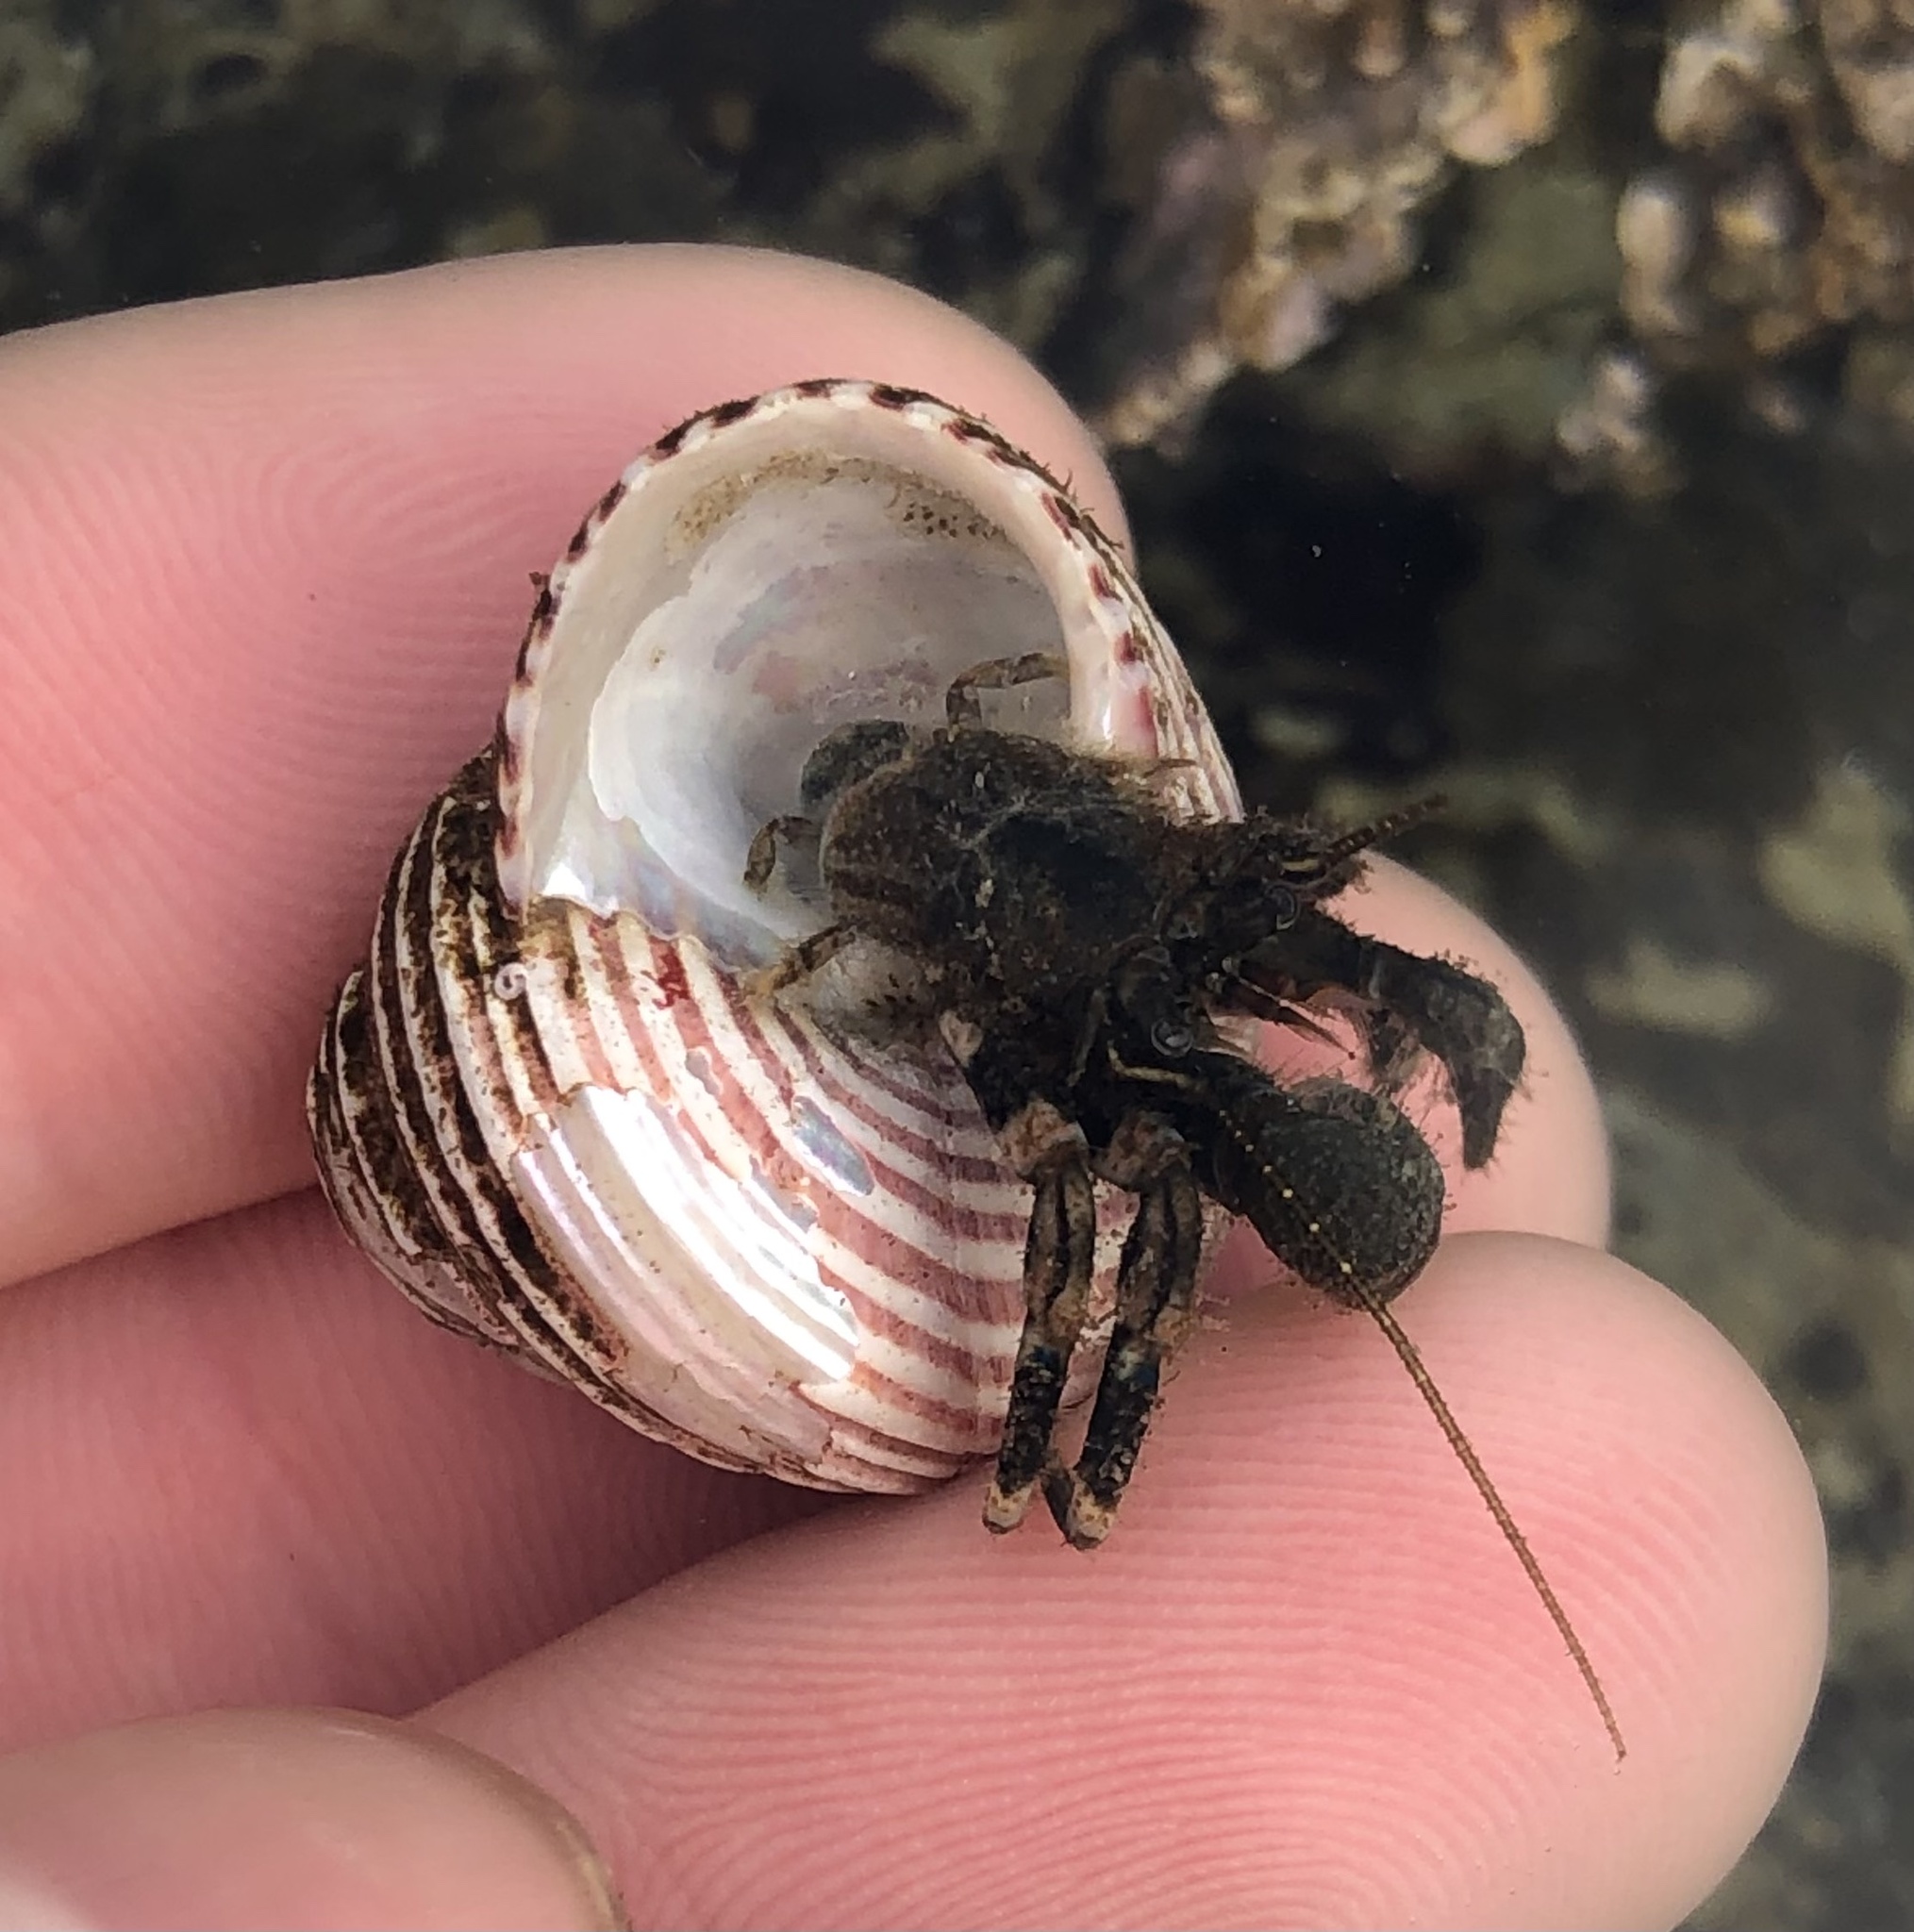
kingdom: Animalia
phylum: Arthropoda
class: Malacostraca
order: Decapoda
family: Paguridae
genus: Pagurus
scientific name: Pagurus hirsutiusculus
